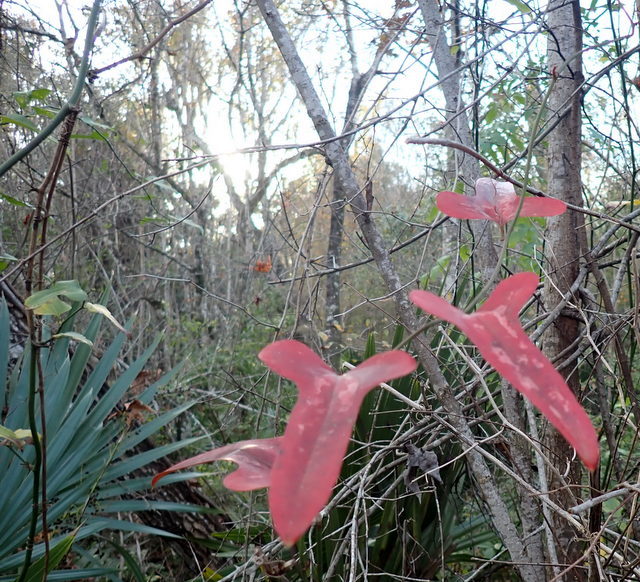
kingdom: Plantae
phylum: Tracheophyta
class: Liliopsida
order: Liliales
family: Smilacaceae
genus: Smilax
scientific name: Smilax bona-nox
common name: Catbrier
